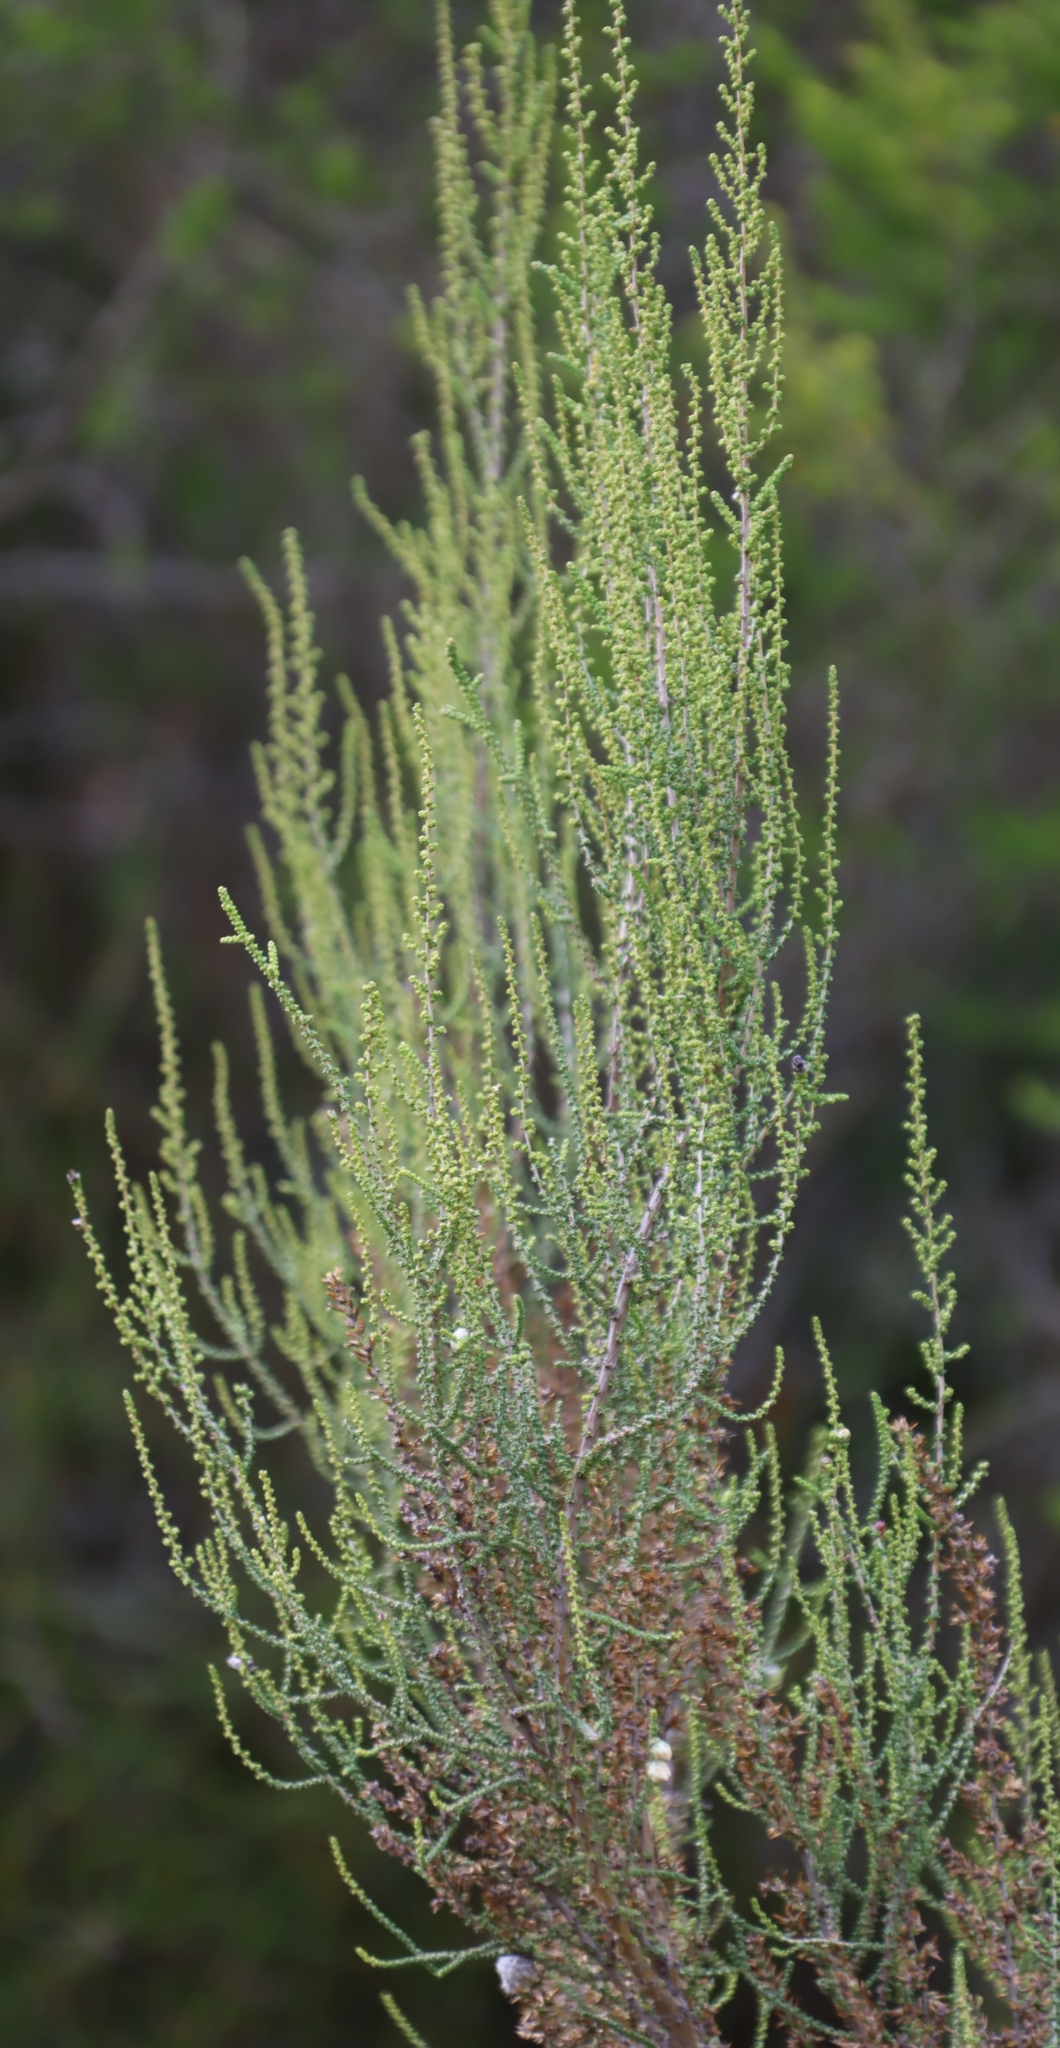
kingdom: Plantae
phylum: Tracheophyta
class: Magnoliopsida
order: Asterales
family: Asteraceae
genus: Dicerothamnus
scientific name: Dicerothamnus rhinocerotis
